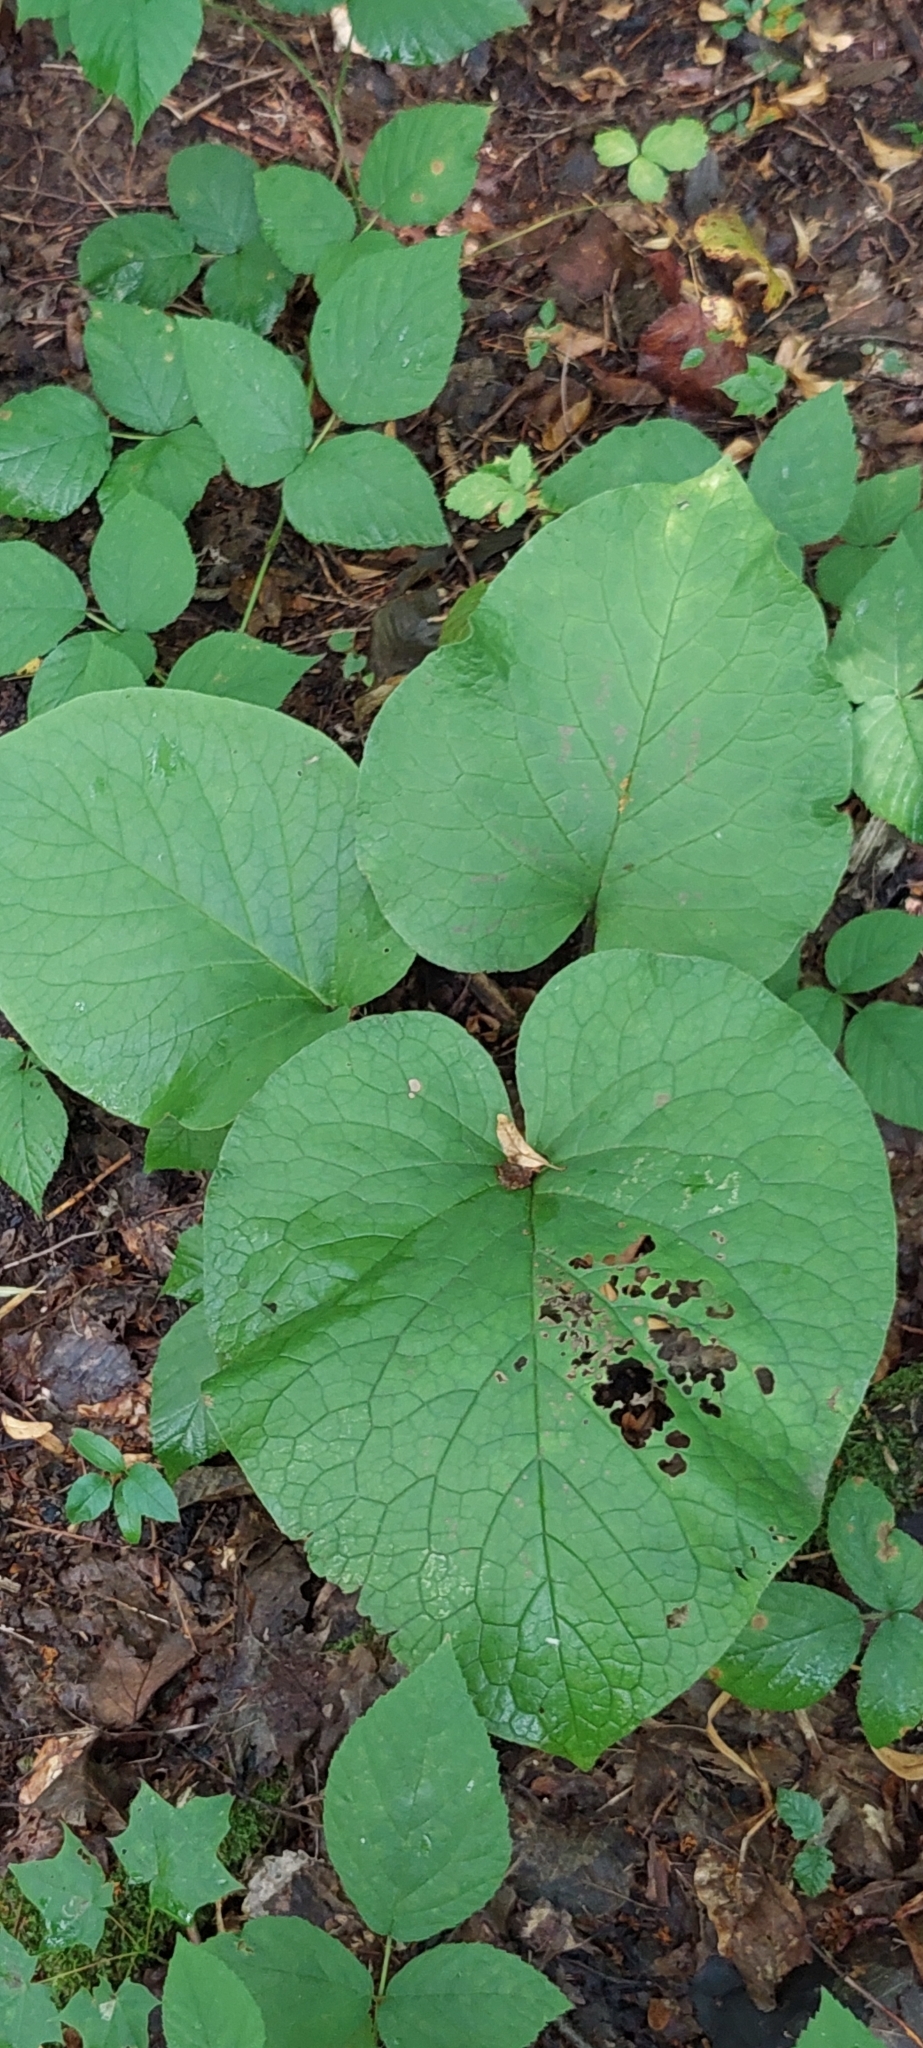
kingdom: Plantae
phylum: Tracheophyta
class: Magnoliopsida
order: Boraginales
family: Boraginaceae
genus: Trachystemon
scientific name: Trachystemon orientale
